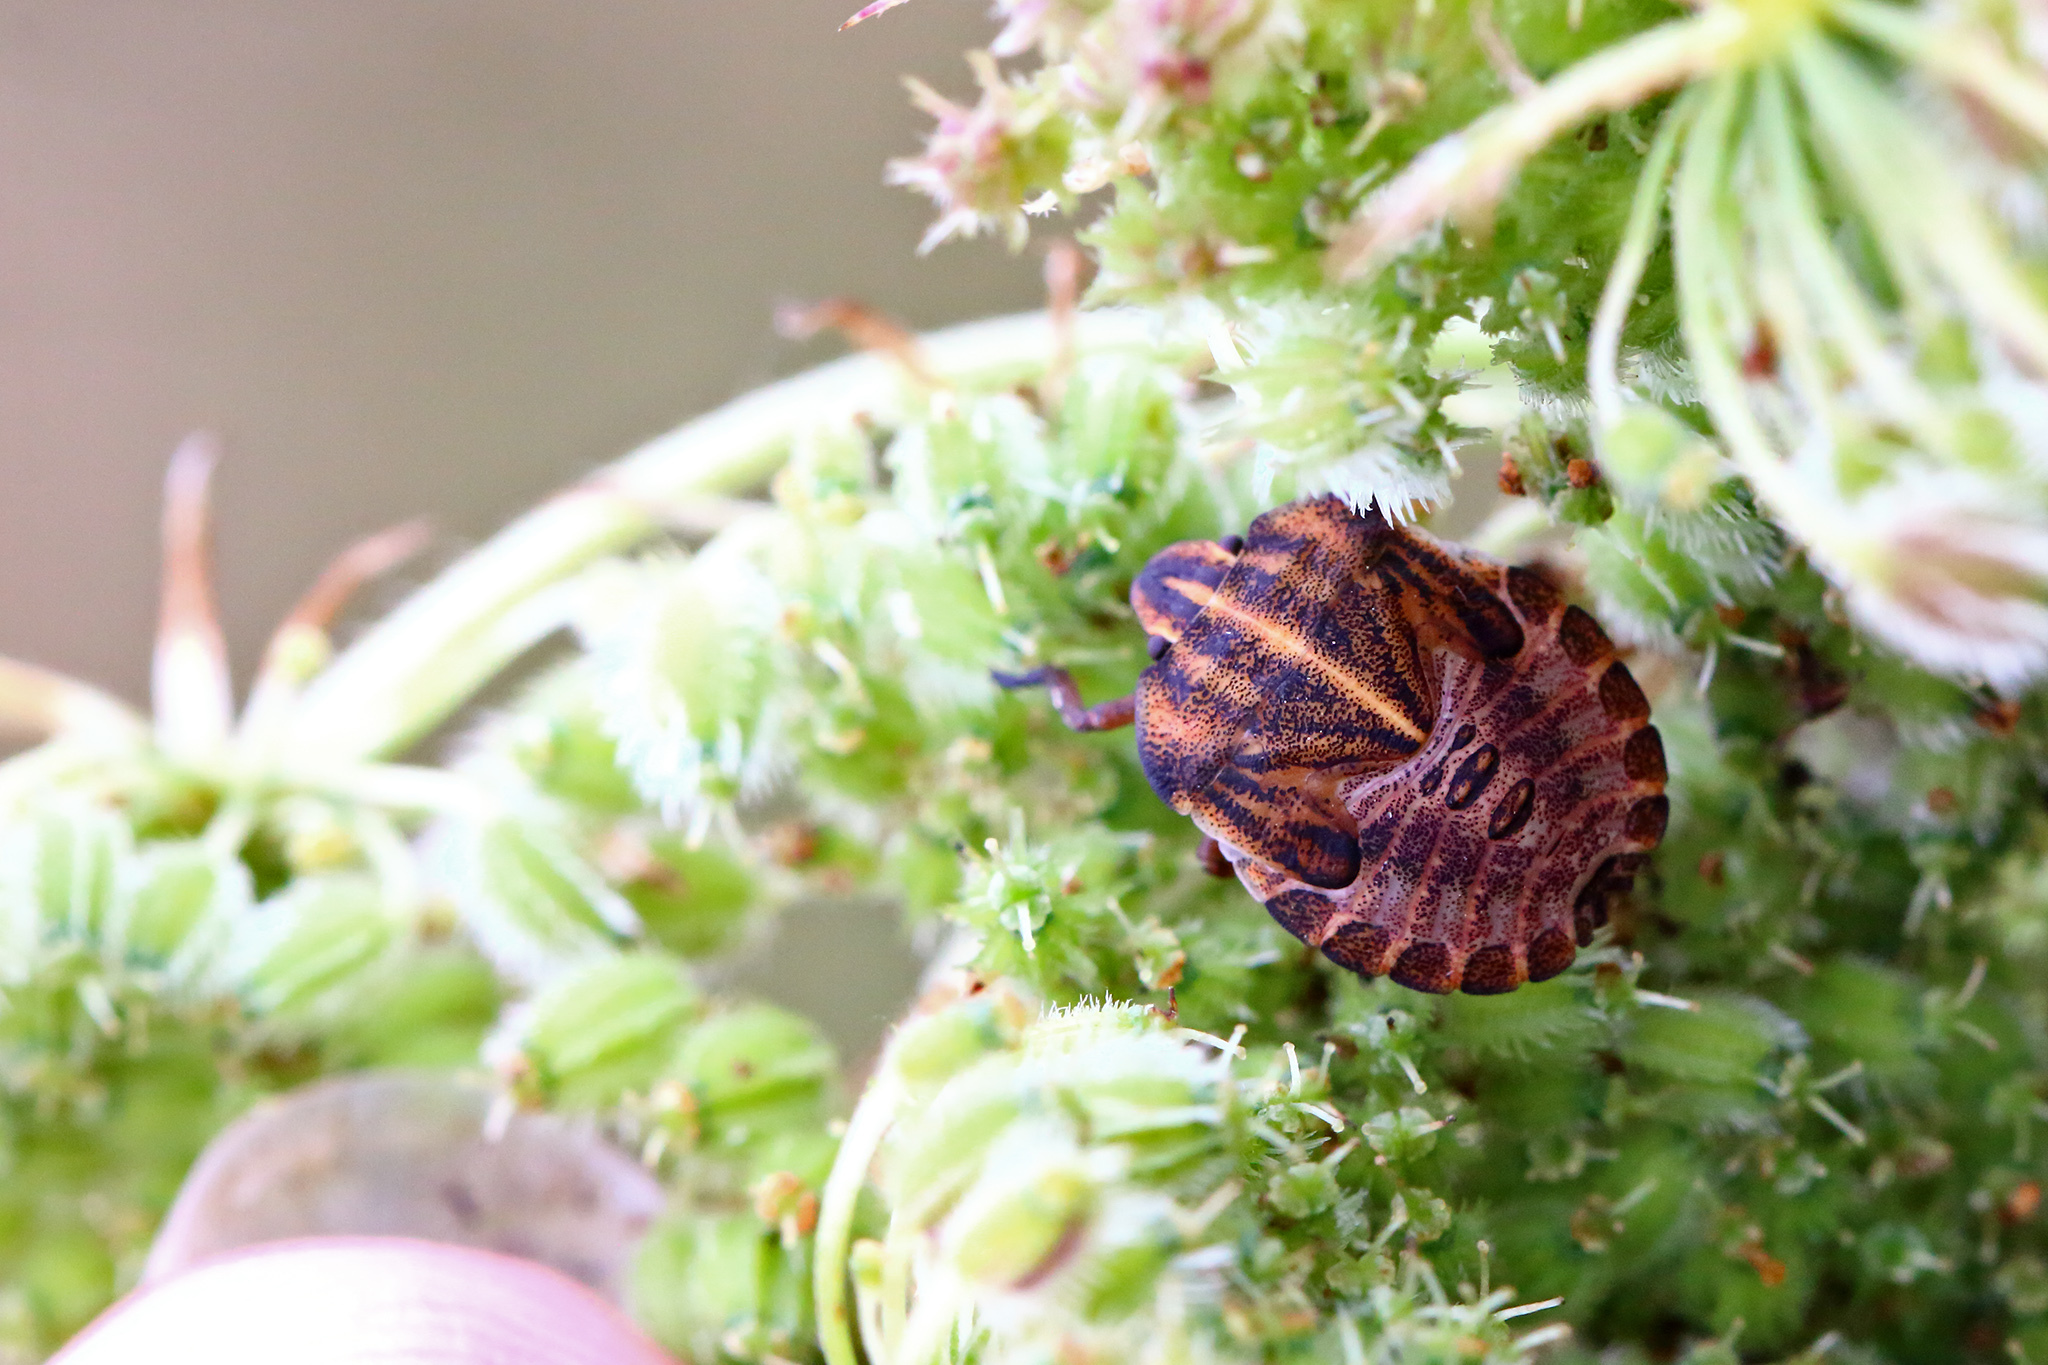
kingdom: Animalia
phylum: Arthropoda
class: Insecta
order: Hemiptera
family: Pentatomidae
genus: Graphosoma
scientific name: Graphosoma italicum
